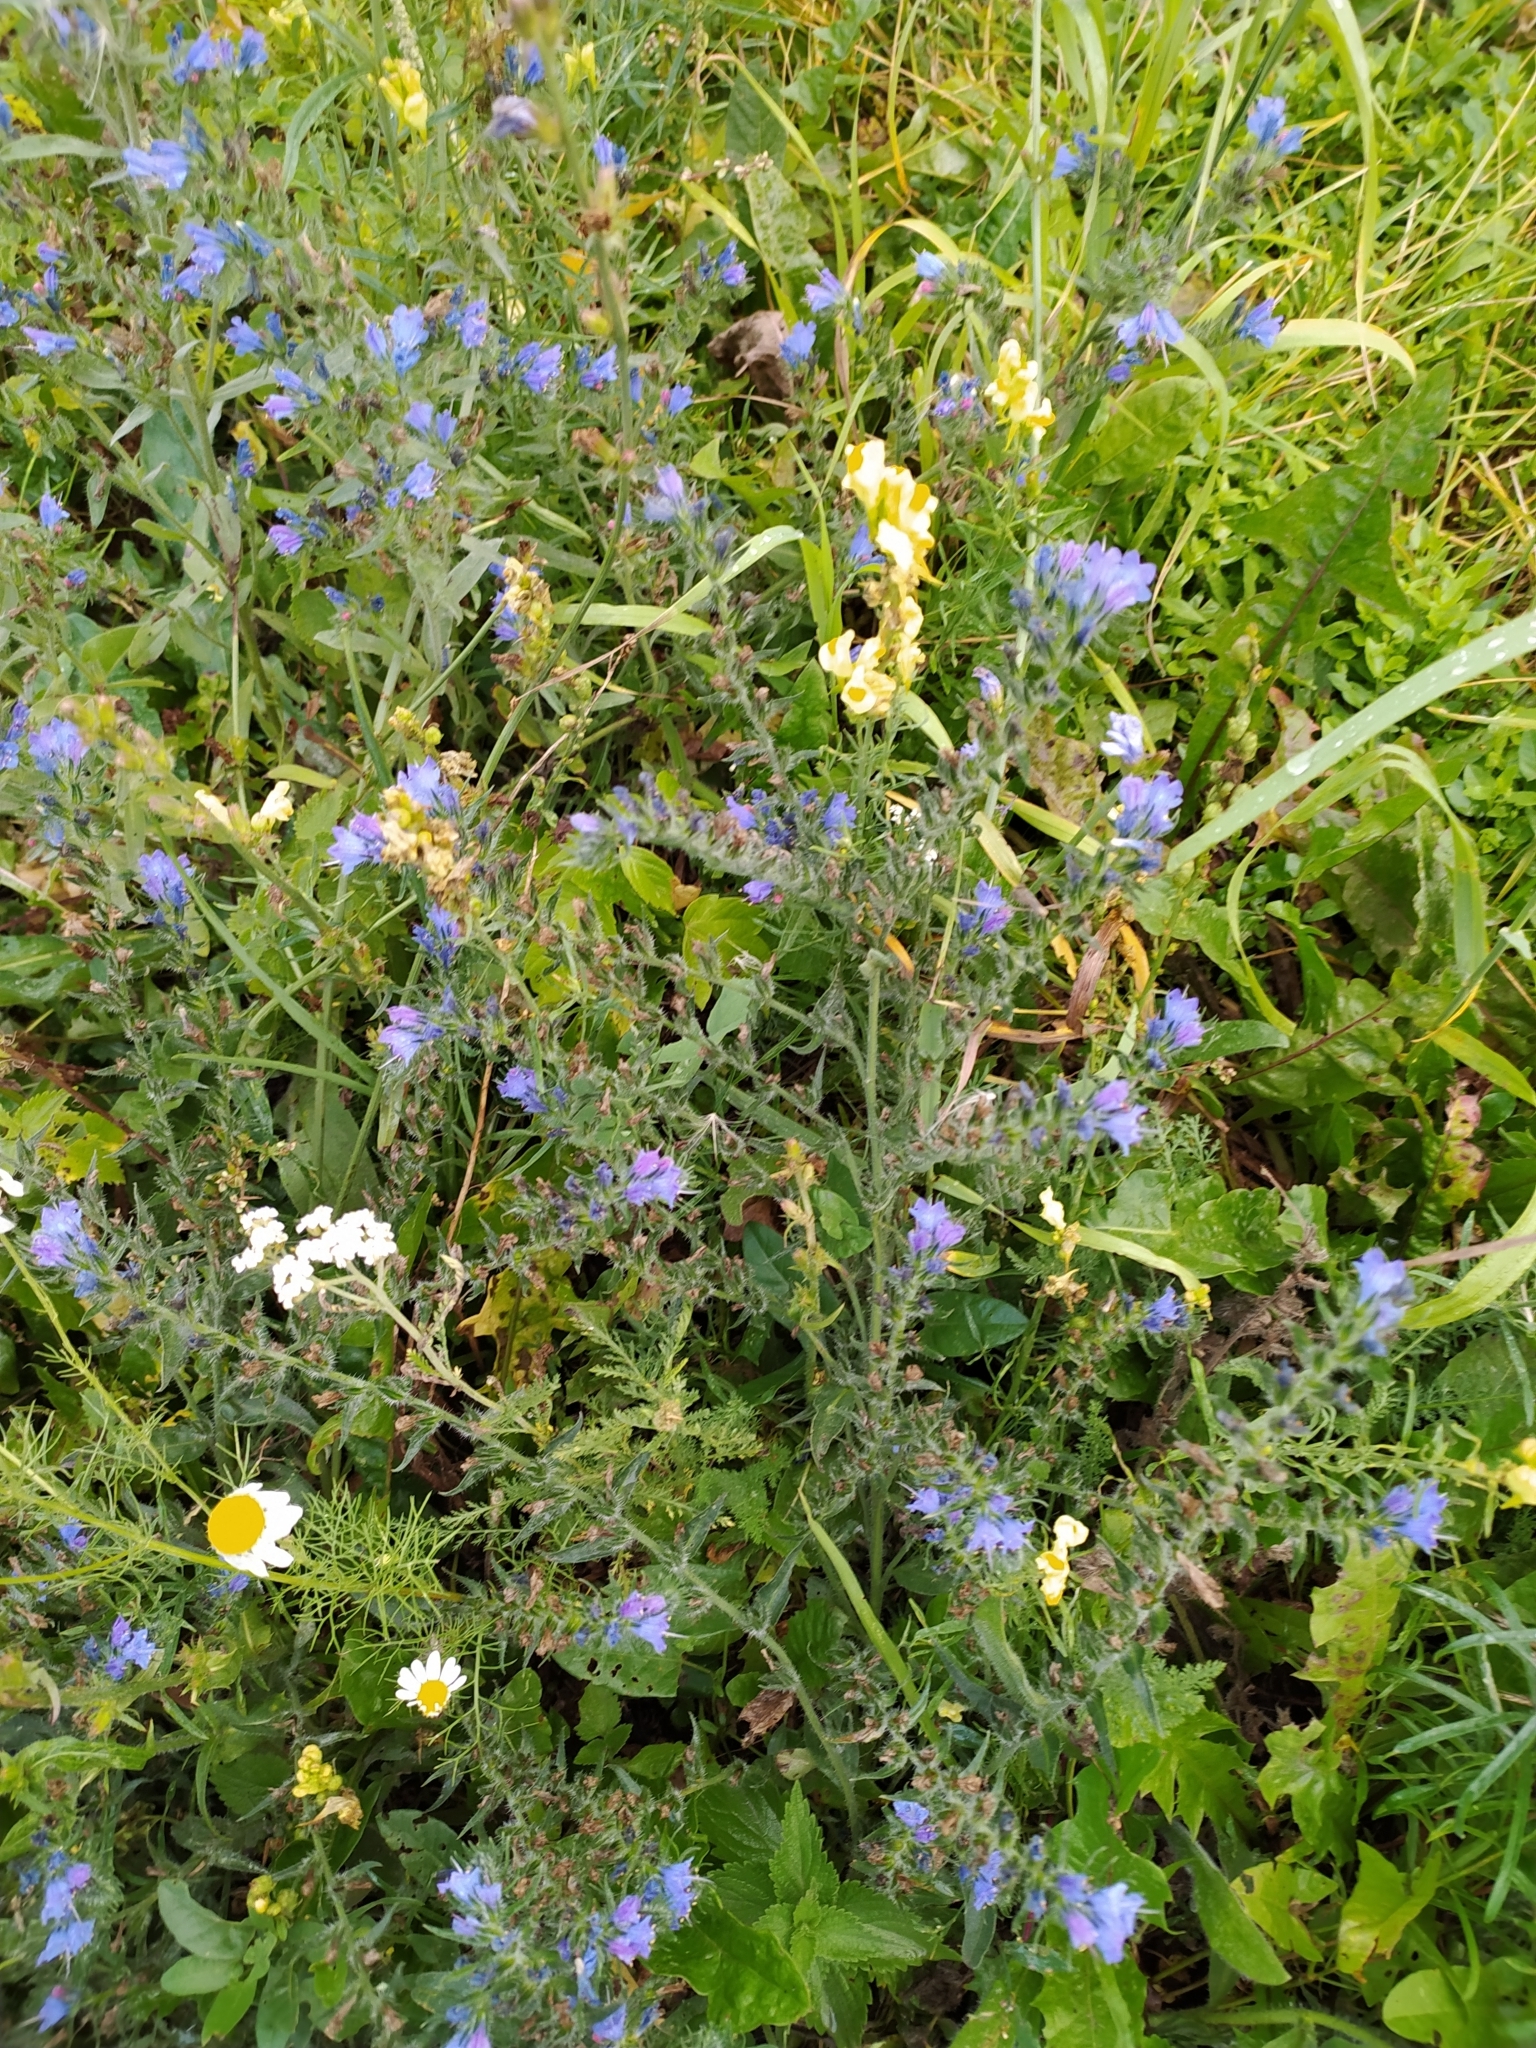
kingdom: Plantae
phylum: Tracheophyta
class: Magnoliopsida
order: Boraginales
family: Boraginaceae
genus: Echium
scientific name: Echium vulgare
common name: Common viper's bugloss
